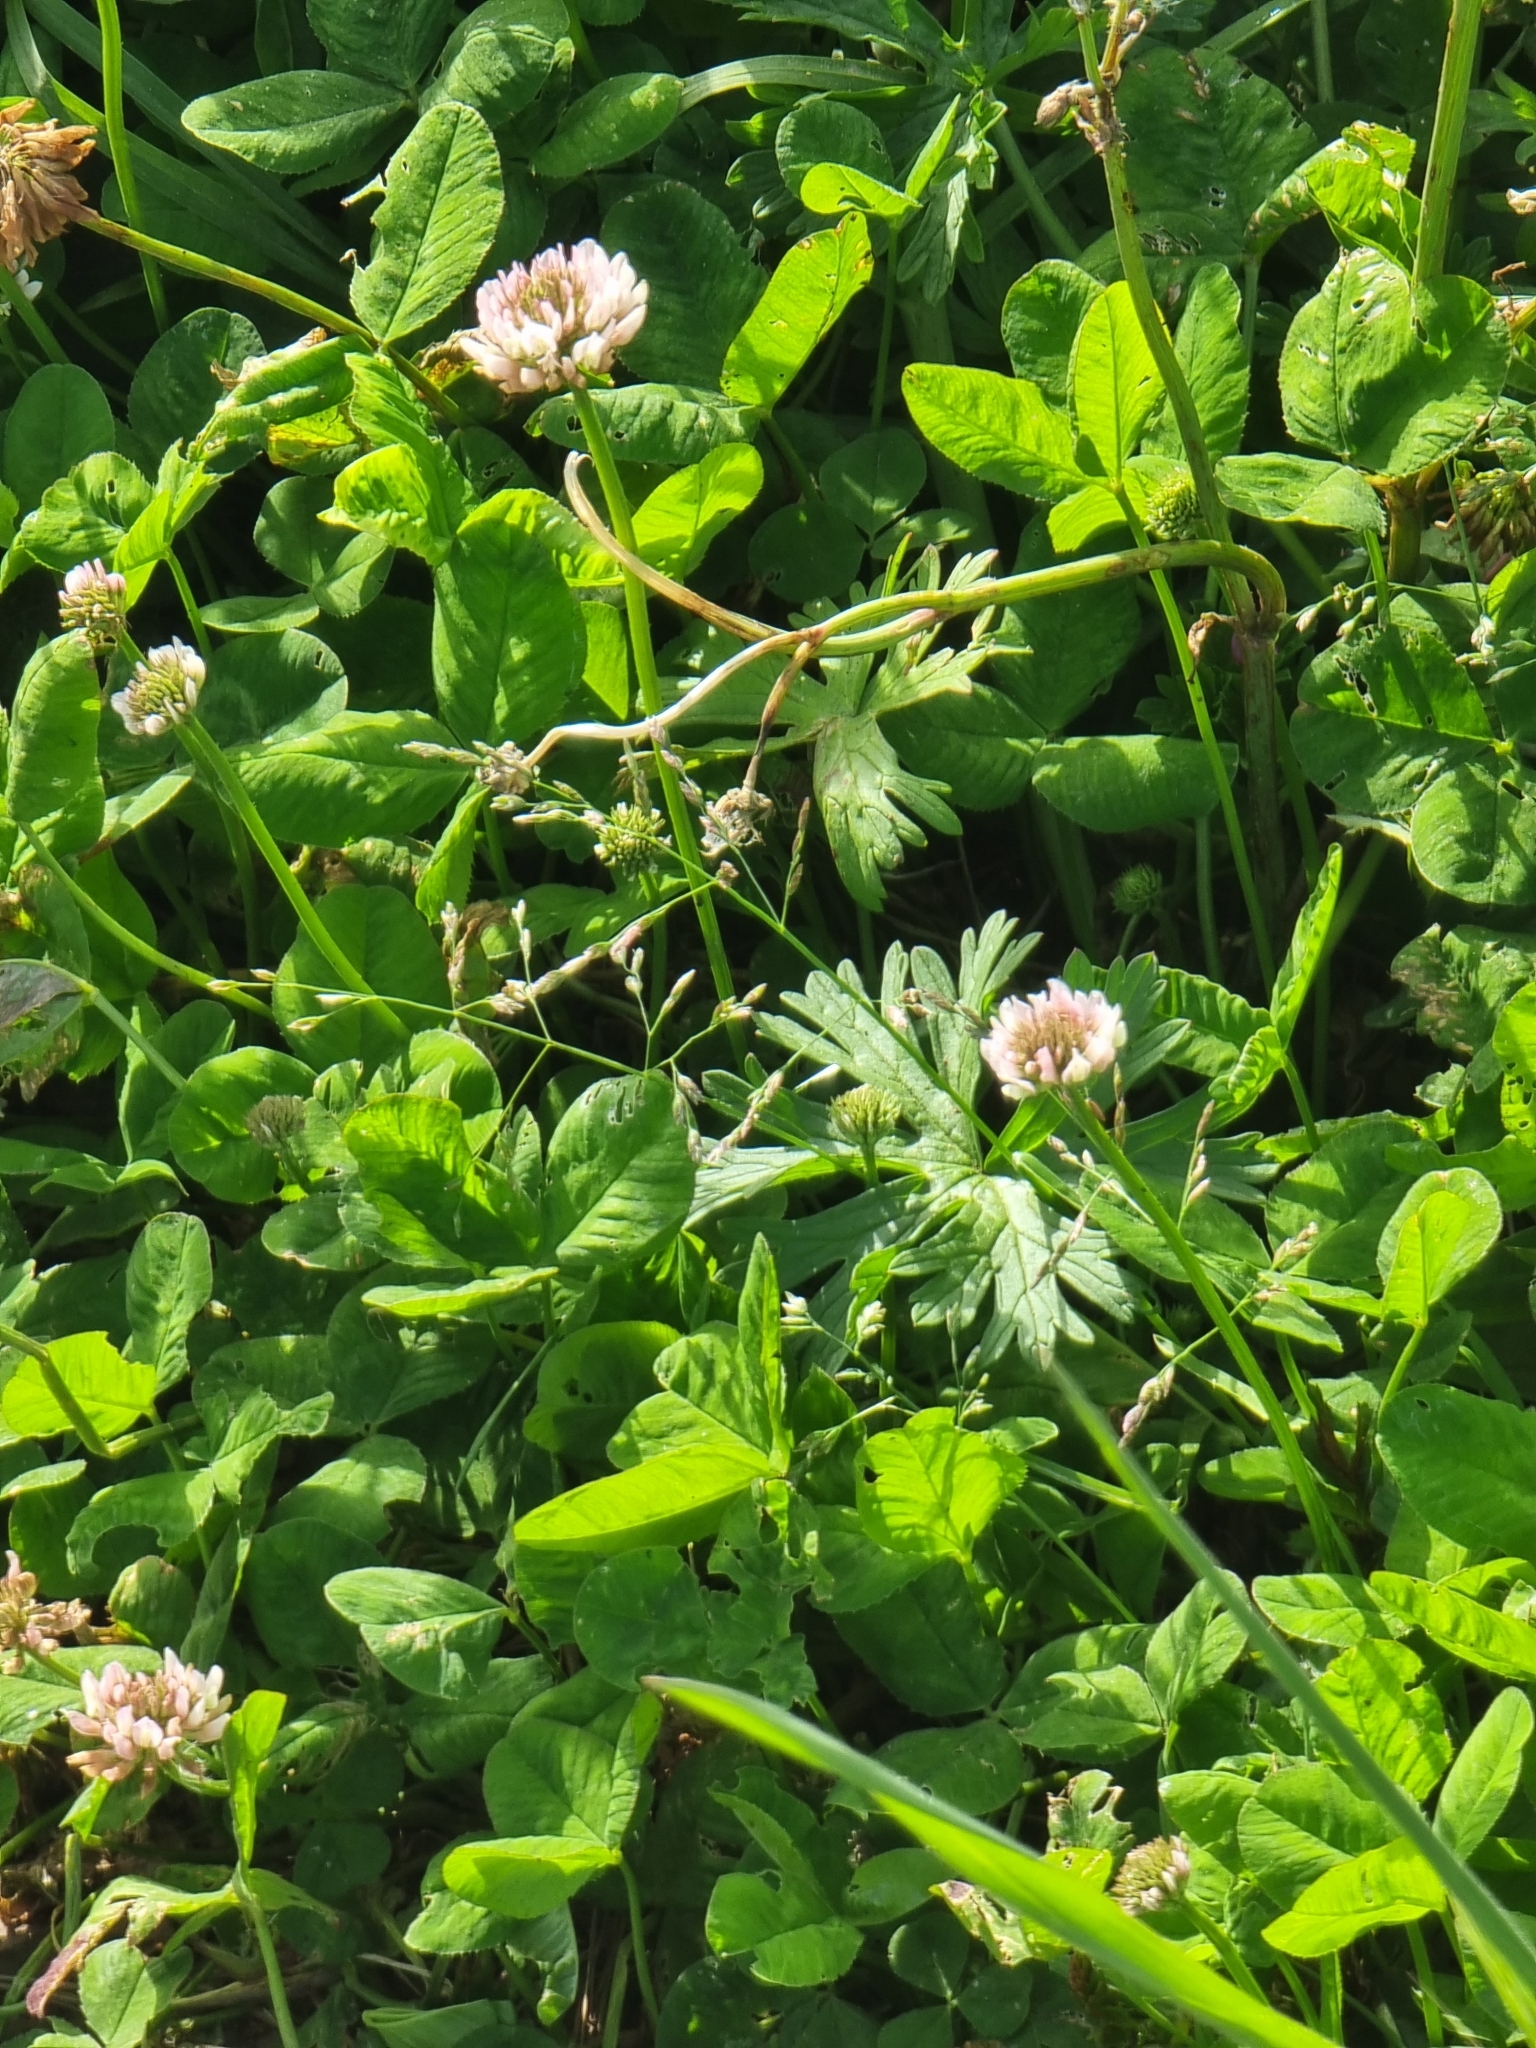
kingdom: Plantae
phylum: Tracheophyta
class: Magnoliopsida
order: Fabales
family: Fabaceae
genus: Trifolium
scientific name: Trifolium repens
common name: White clover
